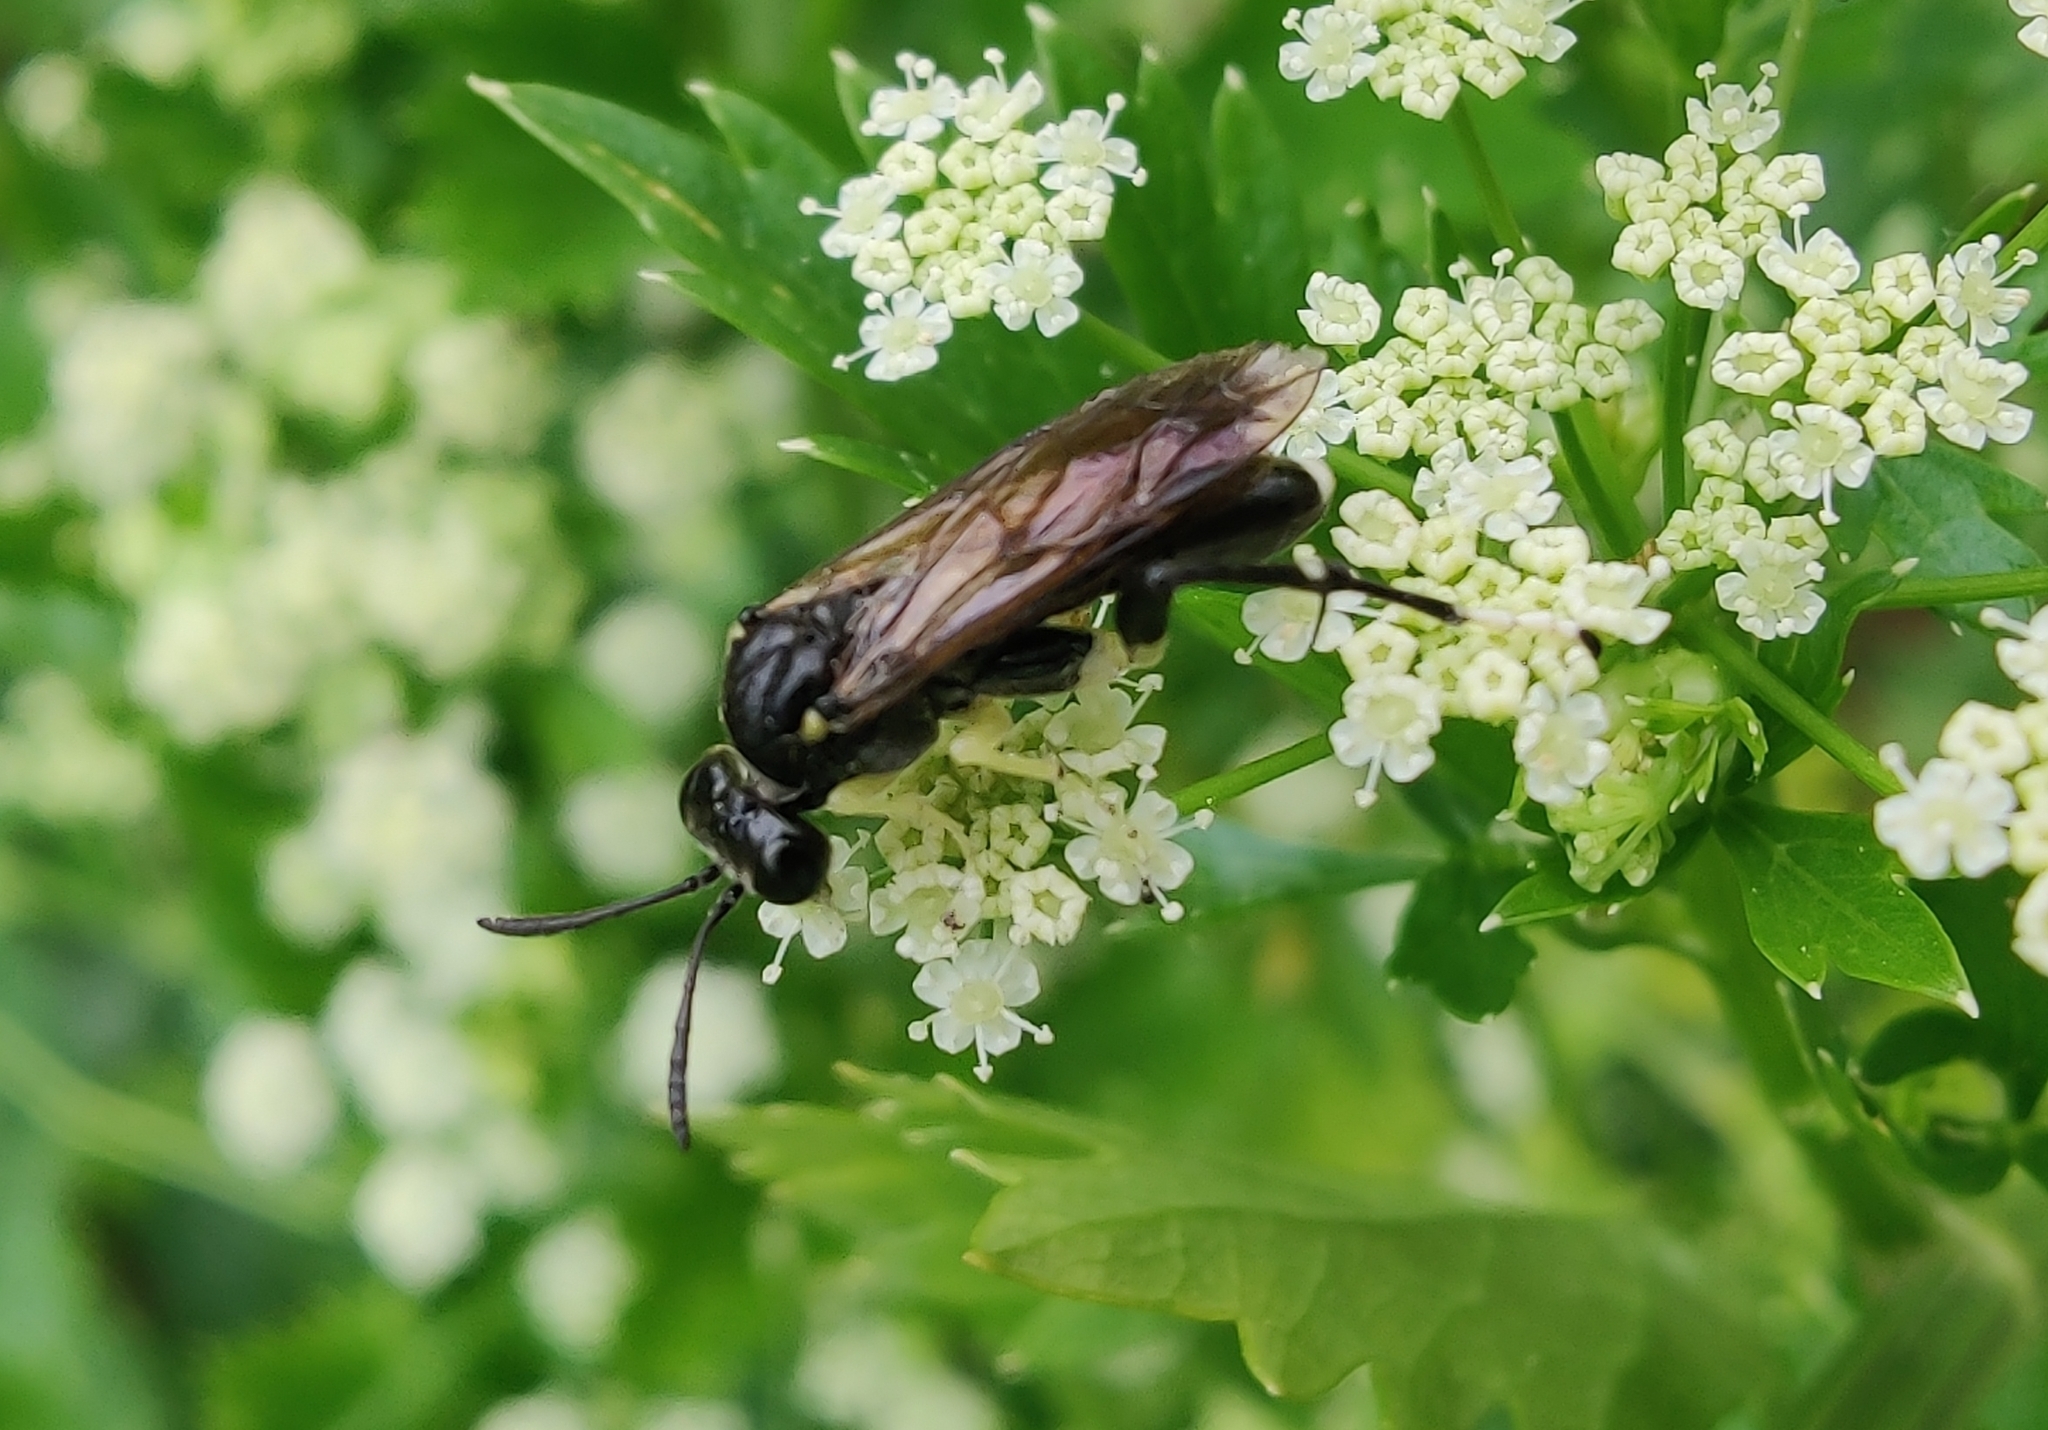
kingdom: Animalia
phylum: Arthropoda
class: Insecta
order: Hymenoptera
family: Tenthredinidae
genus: Macrophya
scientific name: Macrophya montana
